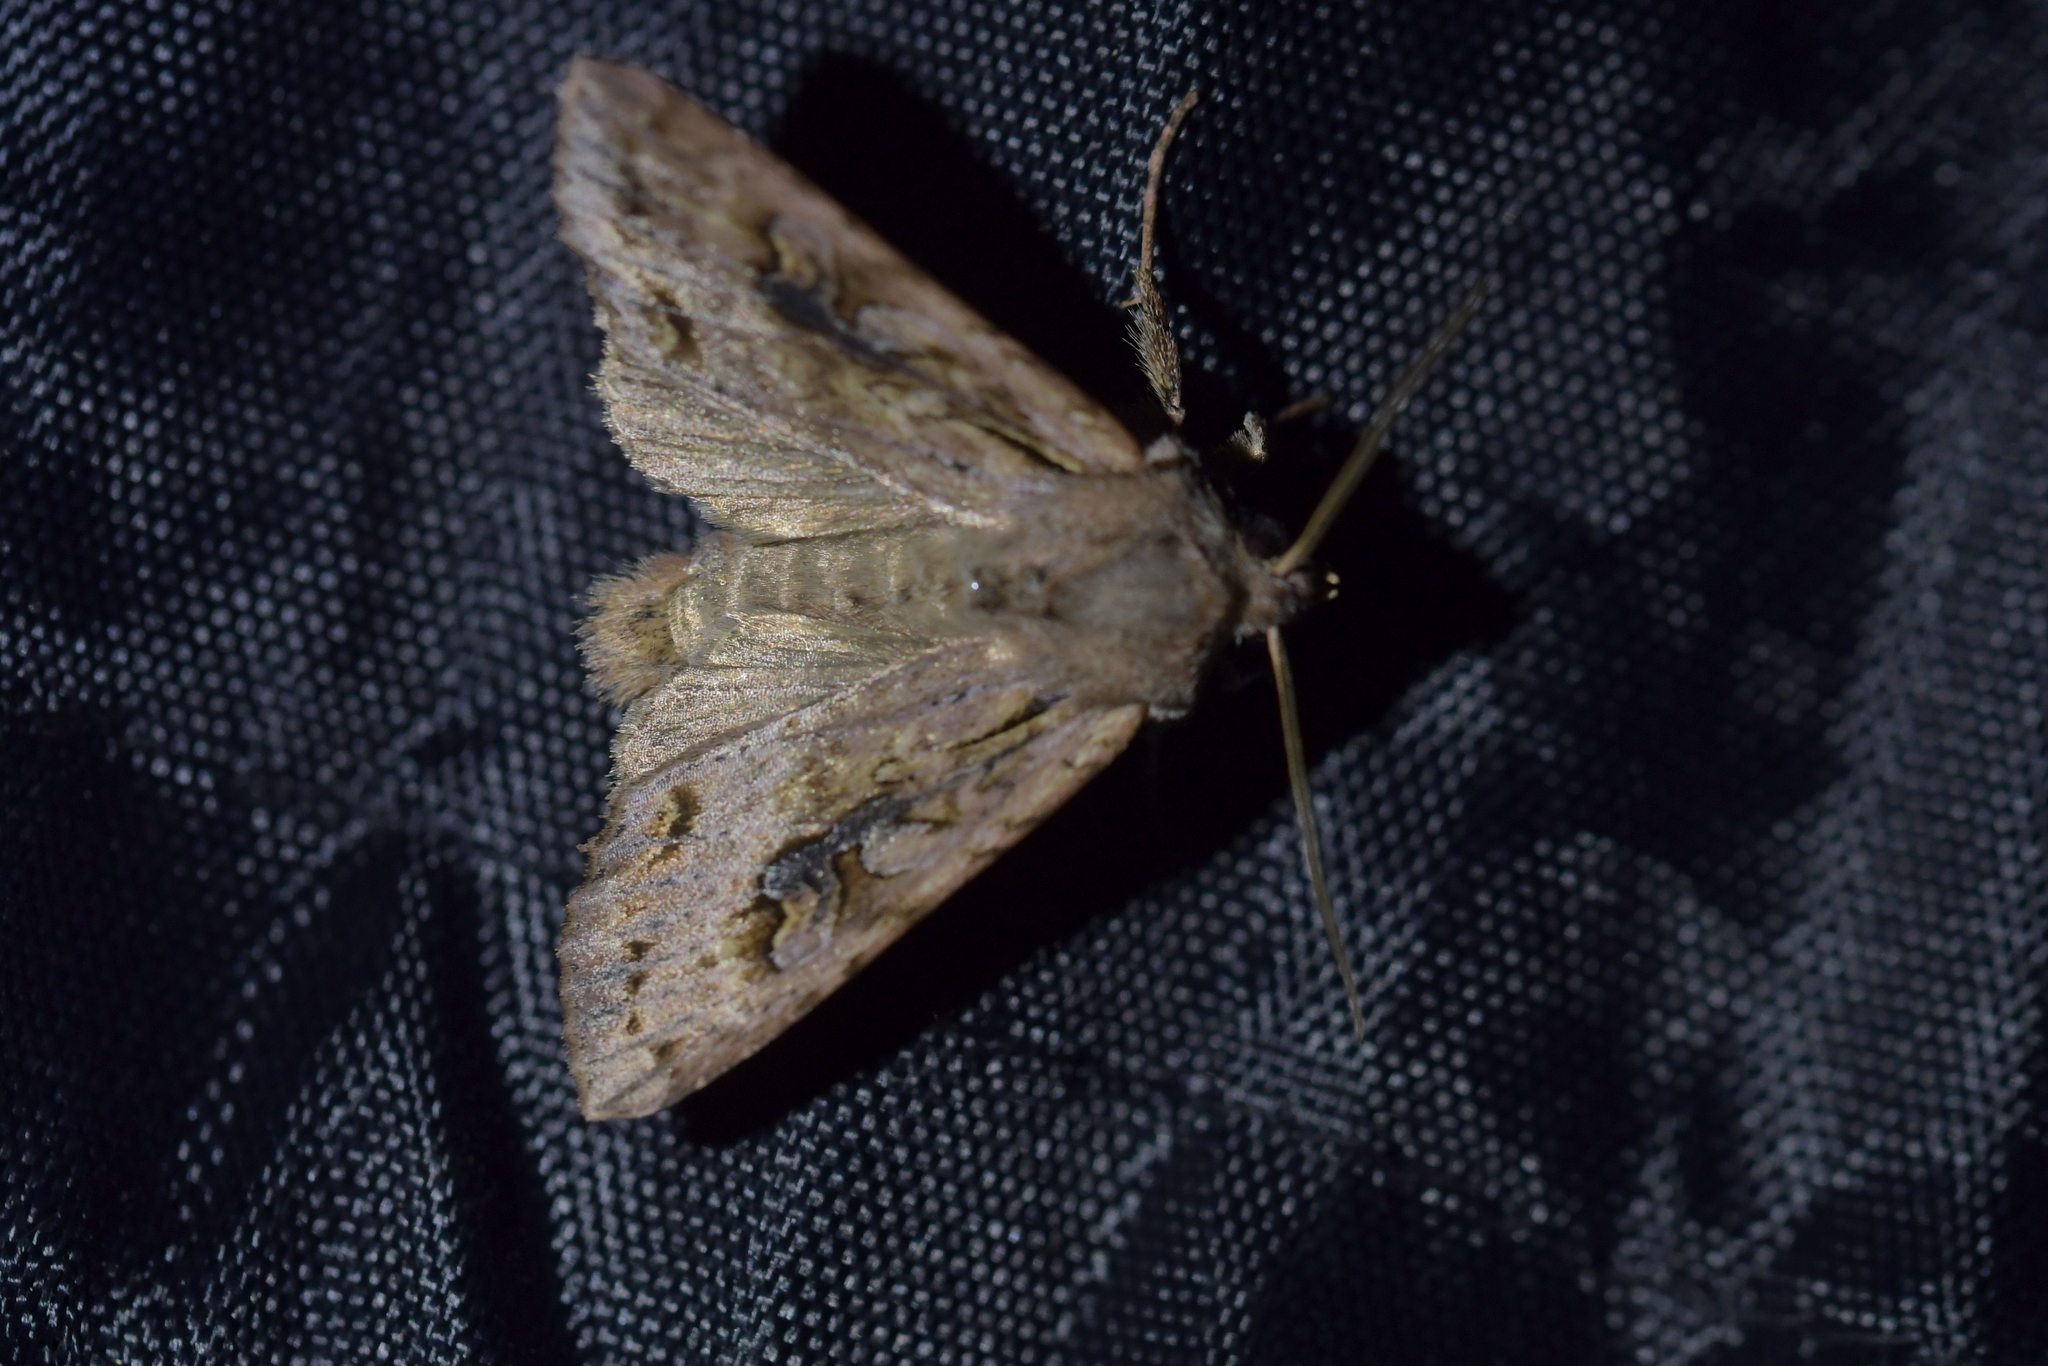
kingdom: Animalia
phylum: Arthropoda
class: Insecta
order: Lepidoptera
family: Noctuidae
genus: Ichneutica
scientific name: Ichneutica lindsayorum
